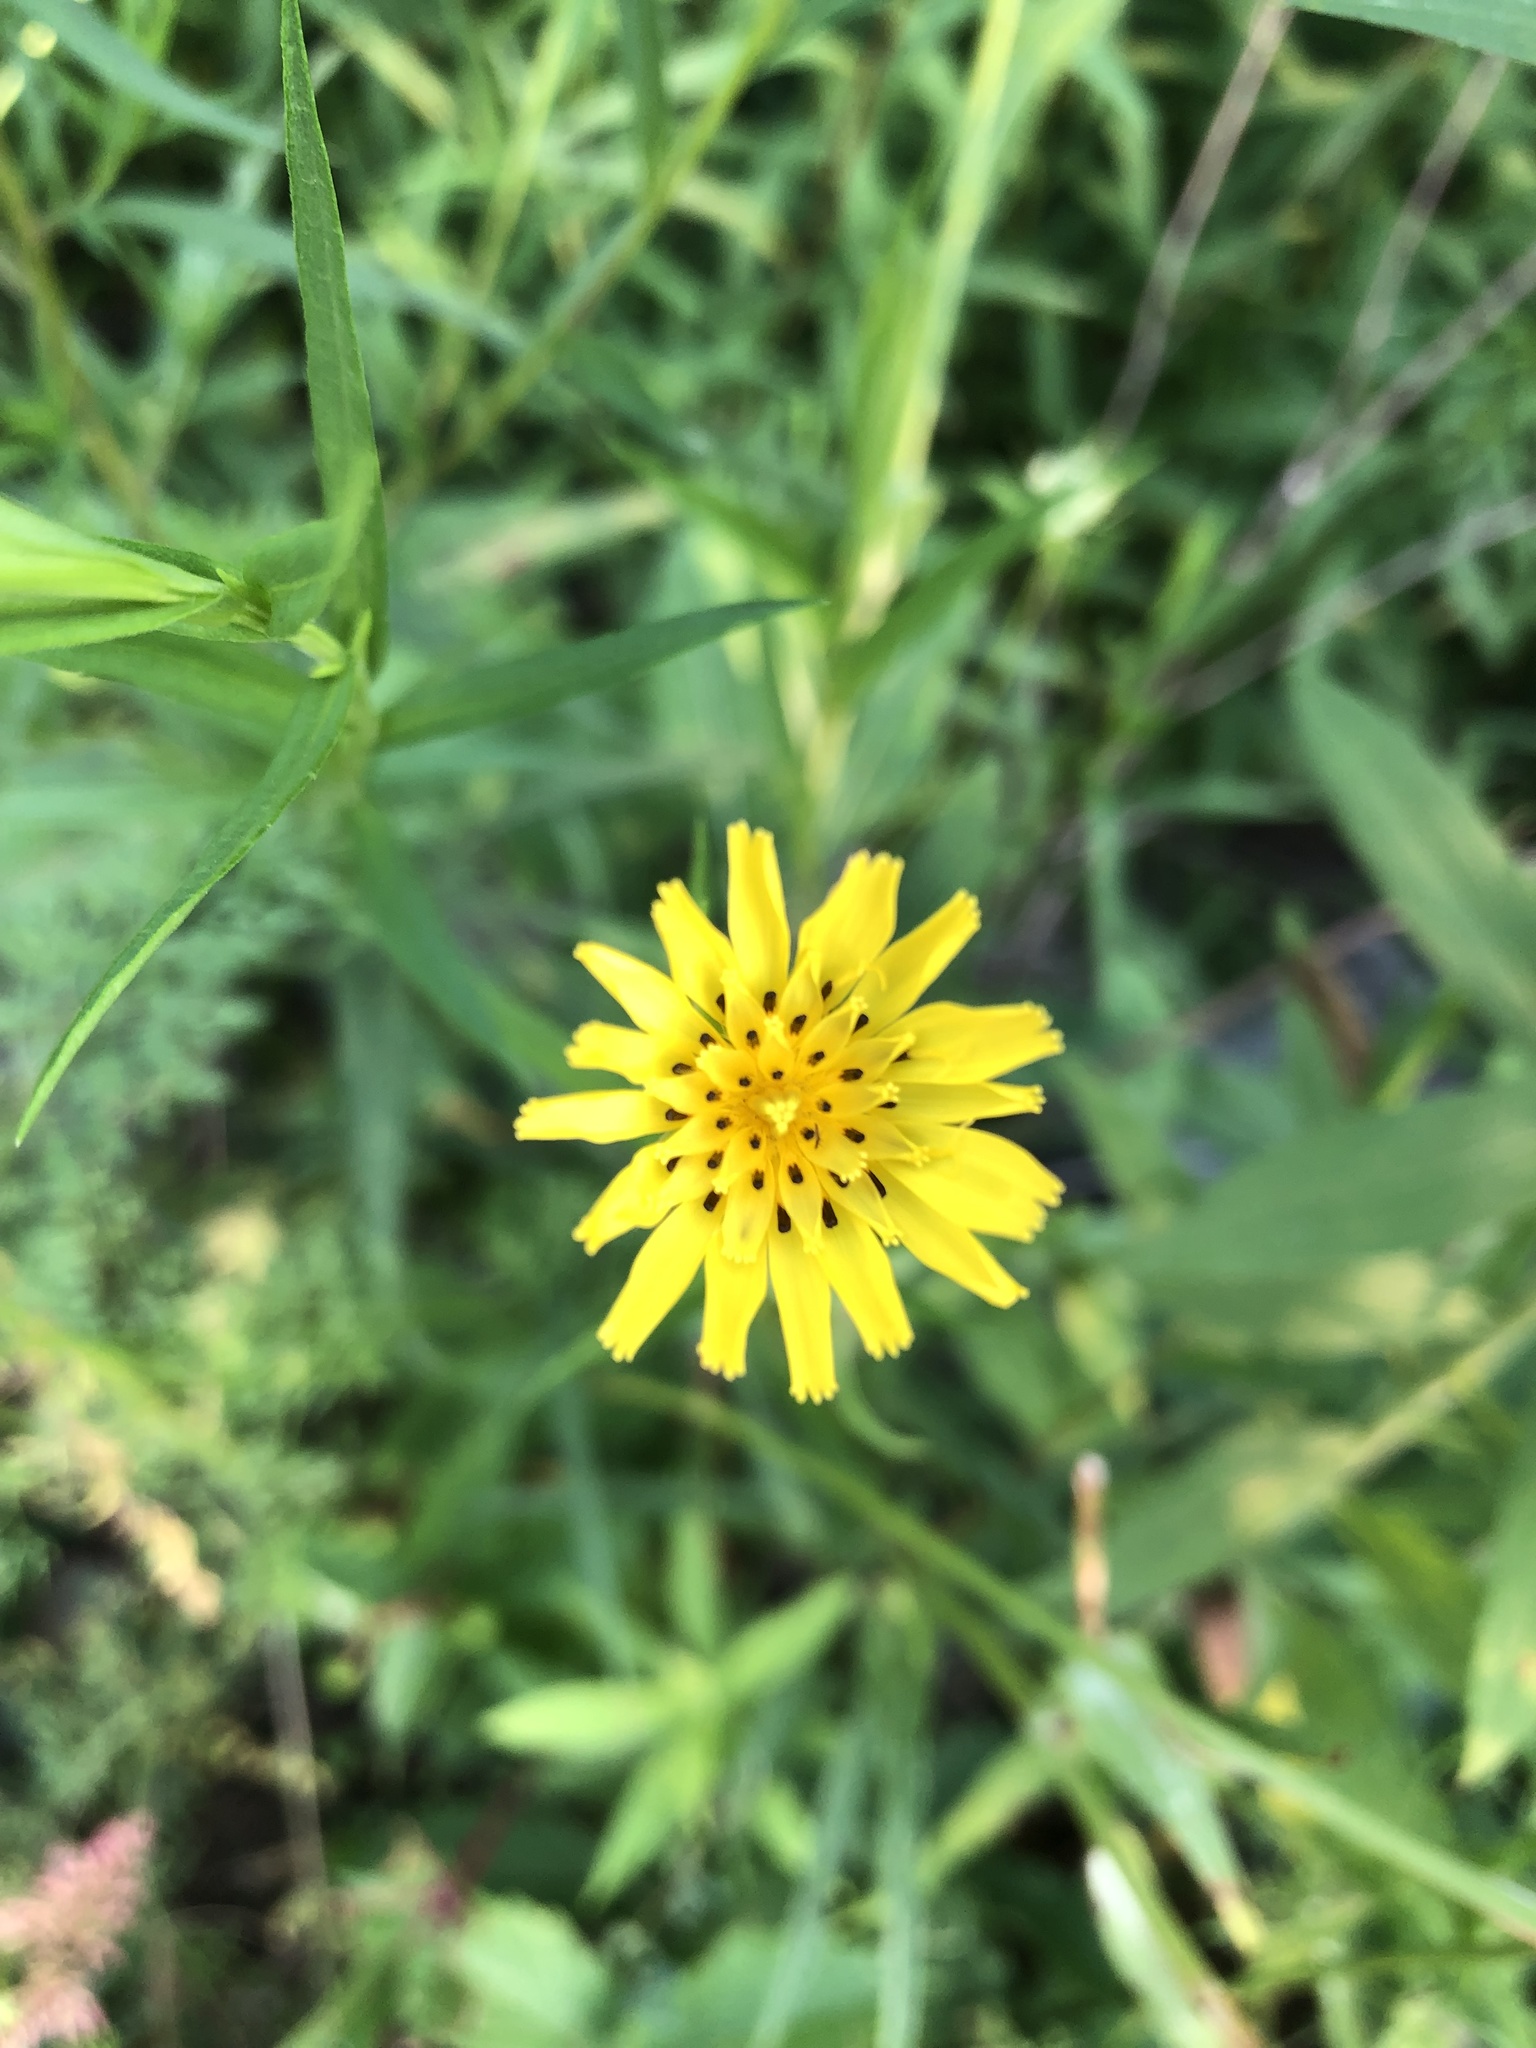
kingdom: Plantae
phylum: Tracheophyta
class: Magnoliopsida
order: Asterales
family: Asteraceae
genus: Tragopogon
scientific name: Tragopogon pratensis
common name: Goat's-beard
